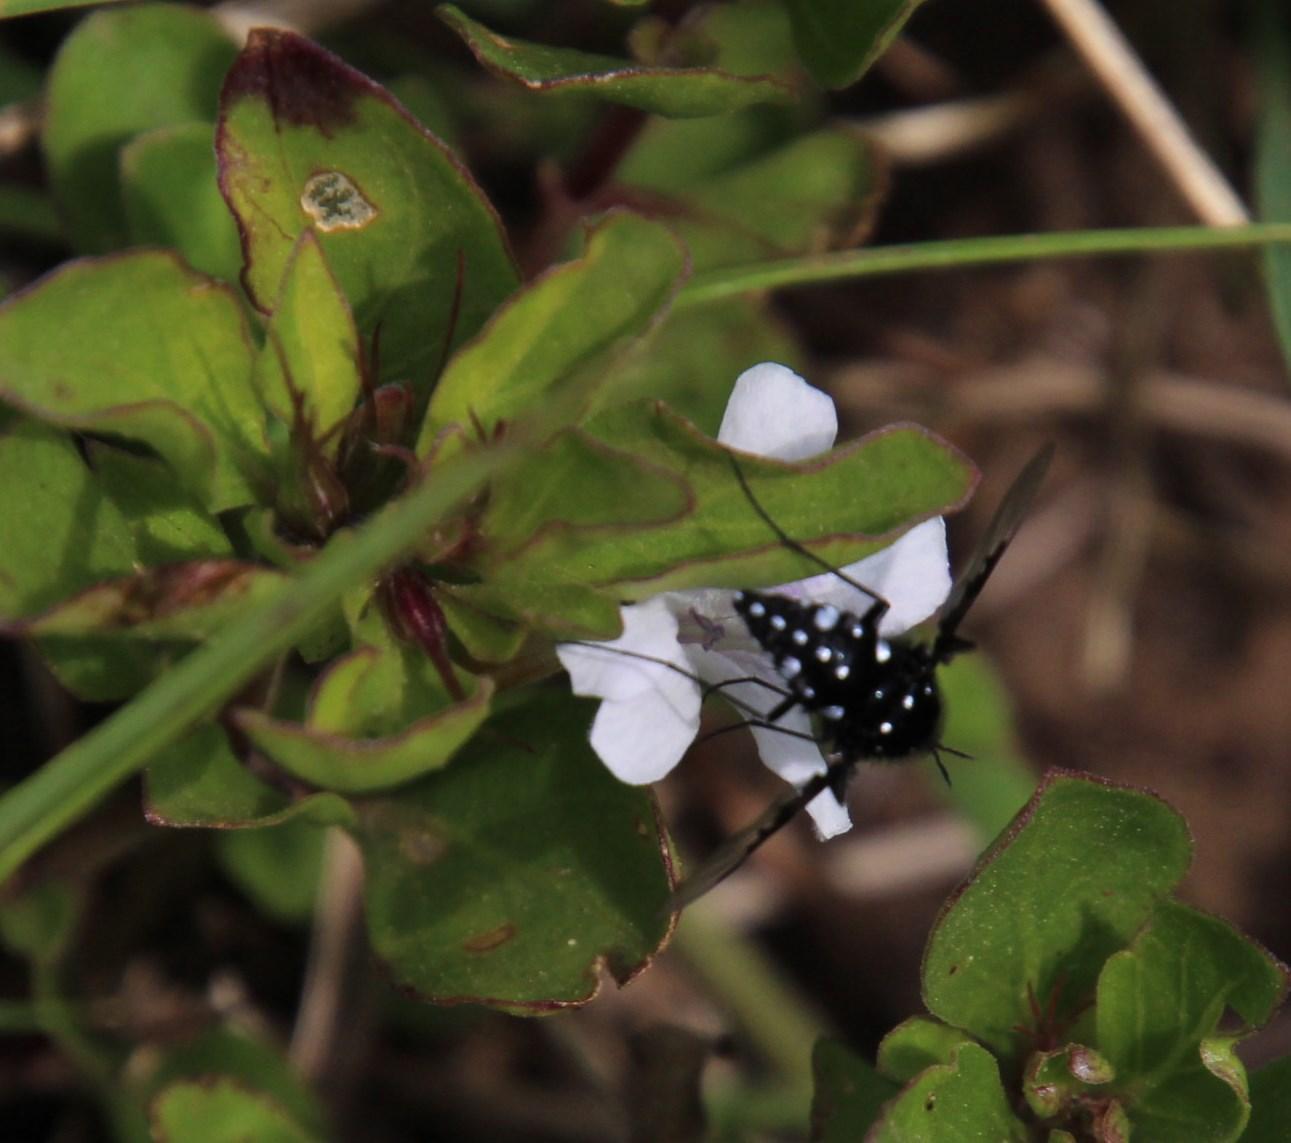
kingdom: Animalia
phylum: Arthropoda
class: Insecta
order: Diptera
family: Bombyliidae
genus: Bombylella
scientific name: Bombylella delicata
